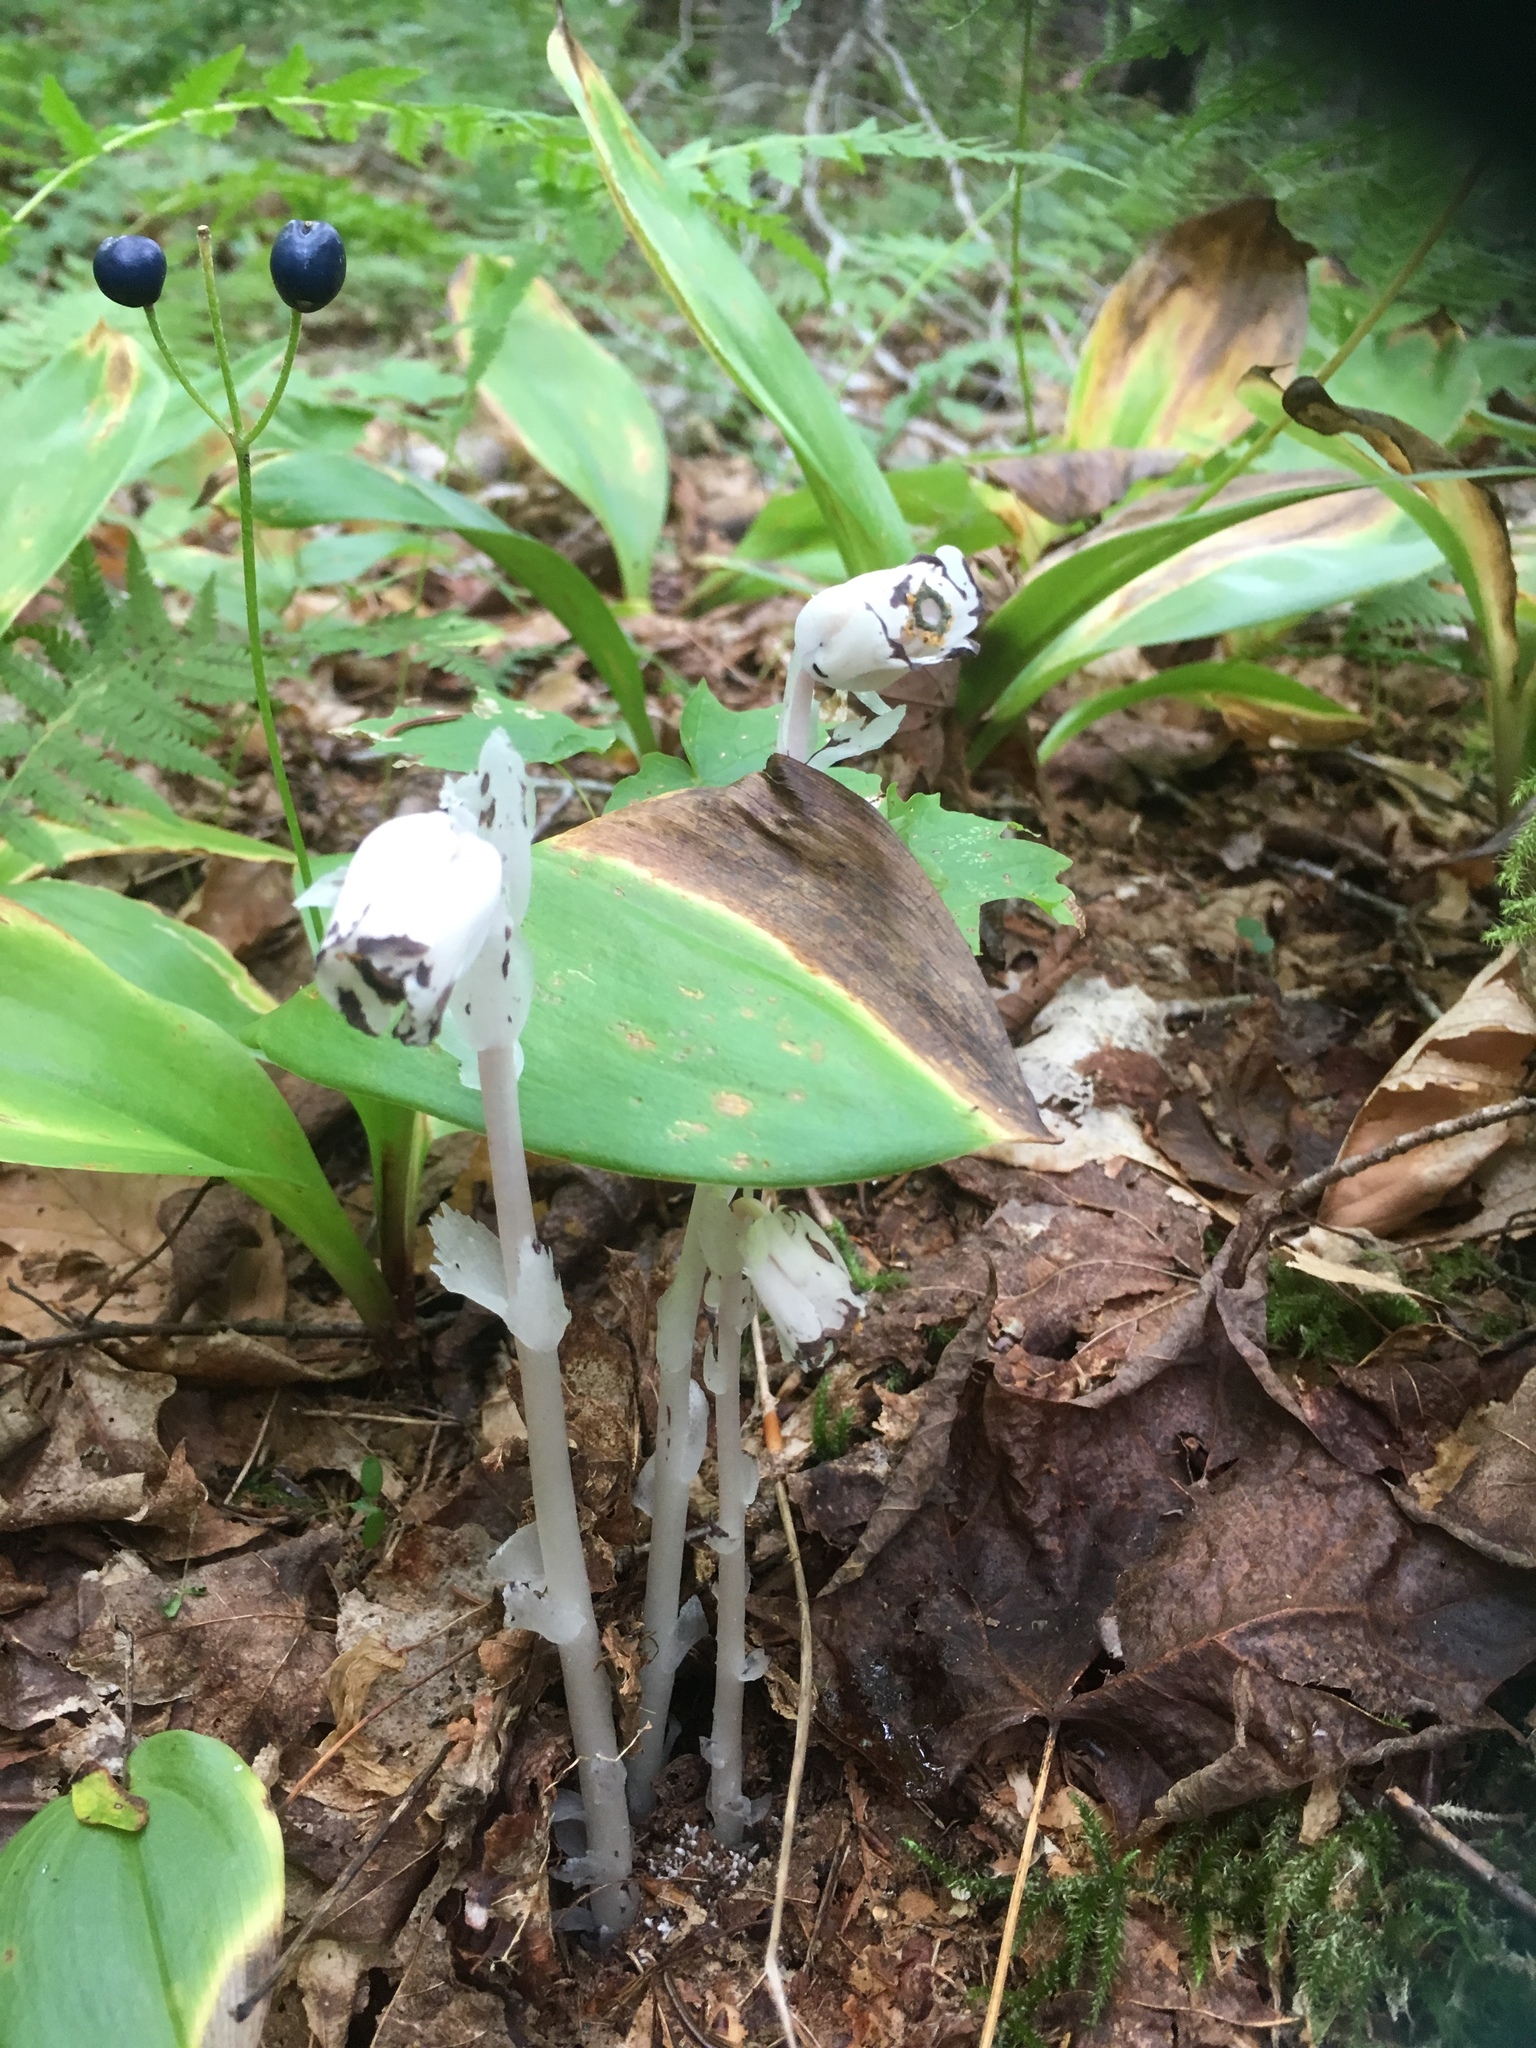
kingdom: Plantae
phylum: Tracheophyta
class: Magnoliopsida
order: Ericales
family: Ericaceae
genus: Monotropa
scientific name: Monotropa uniflora
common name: Convulsion root
